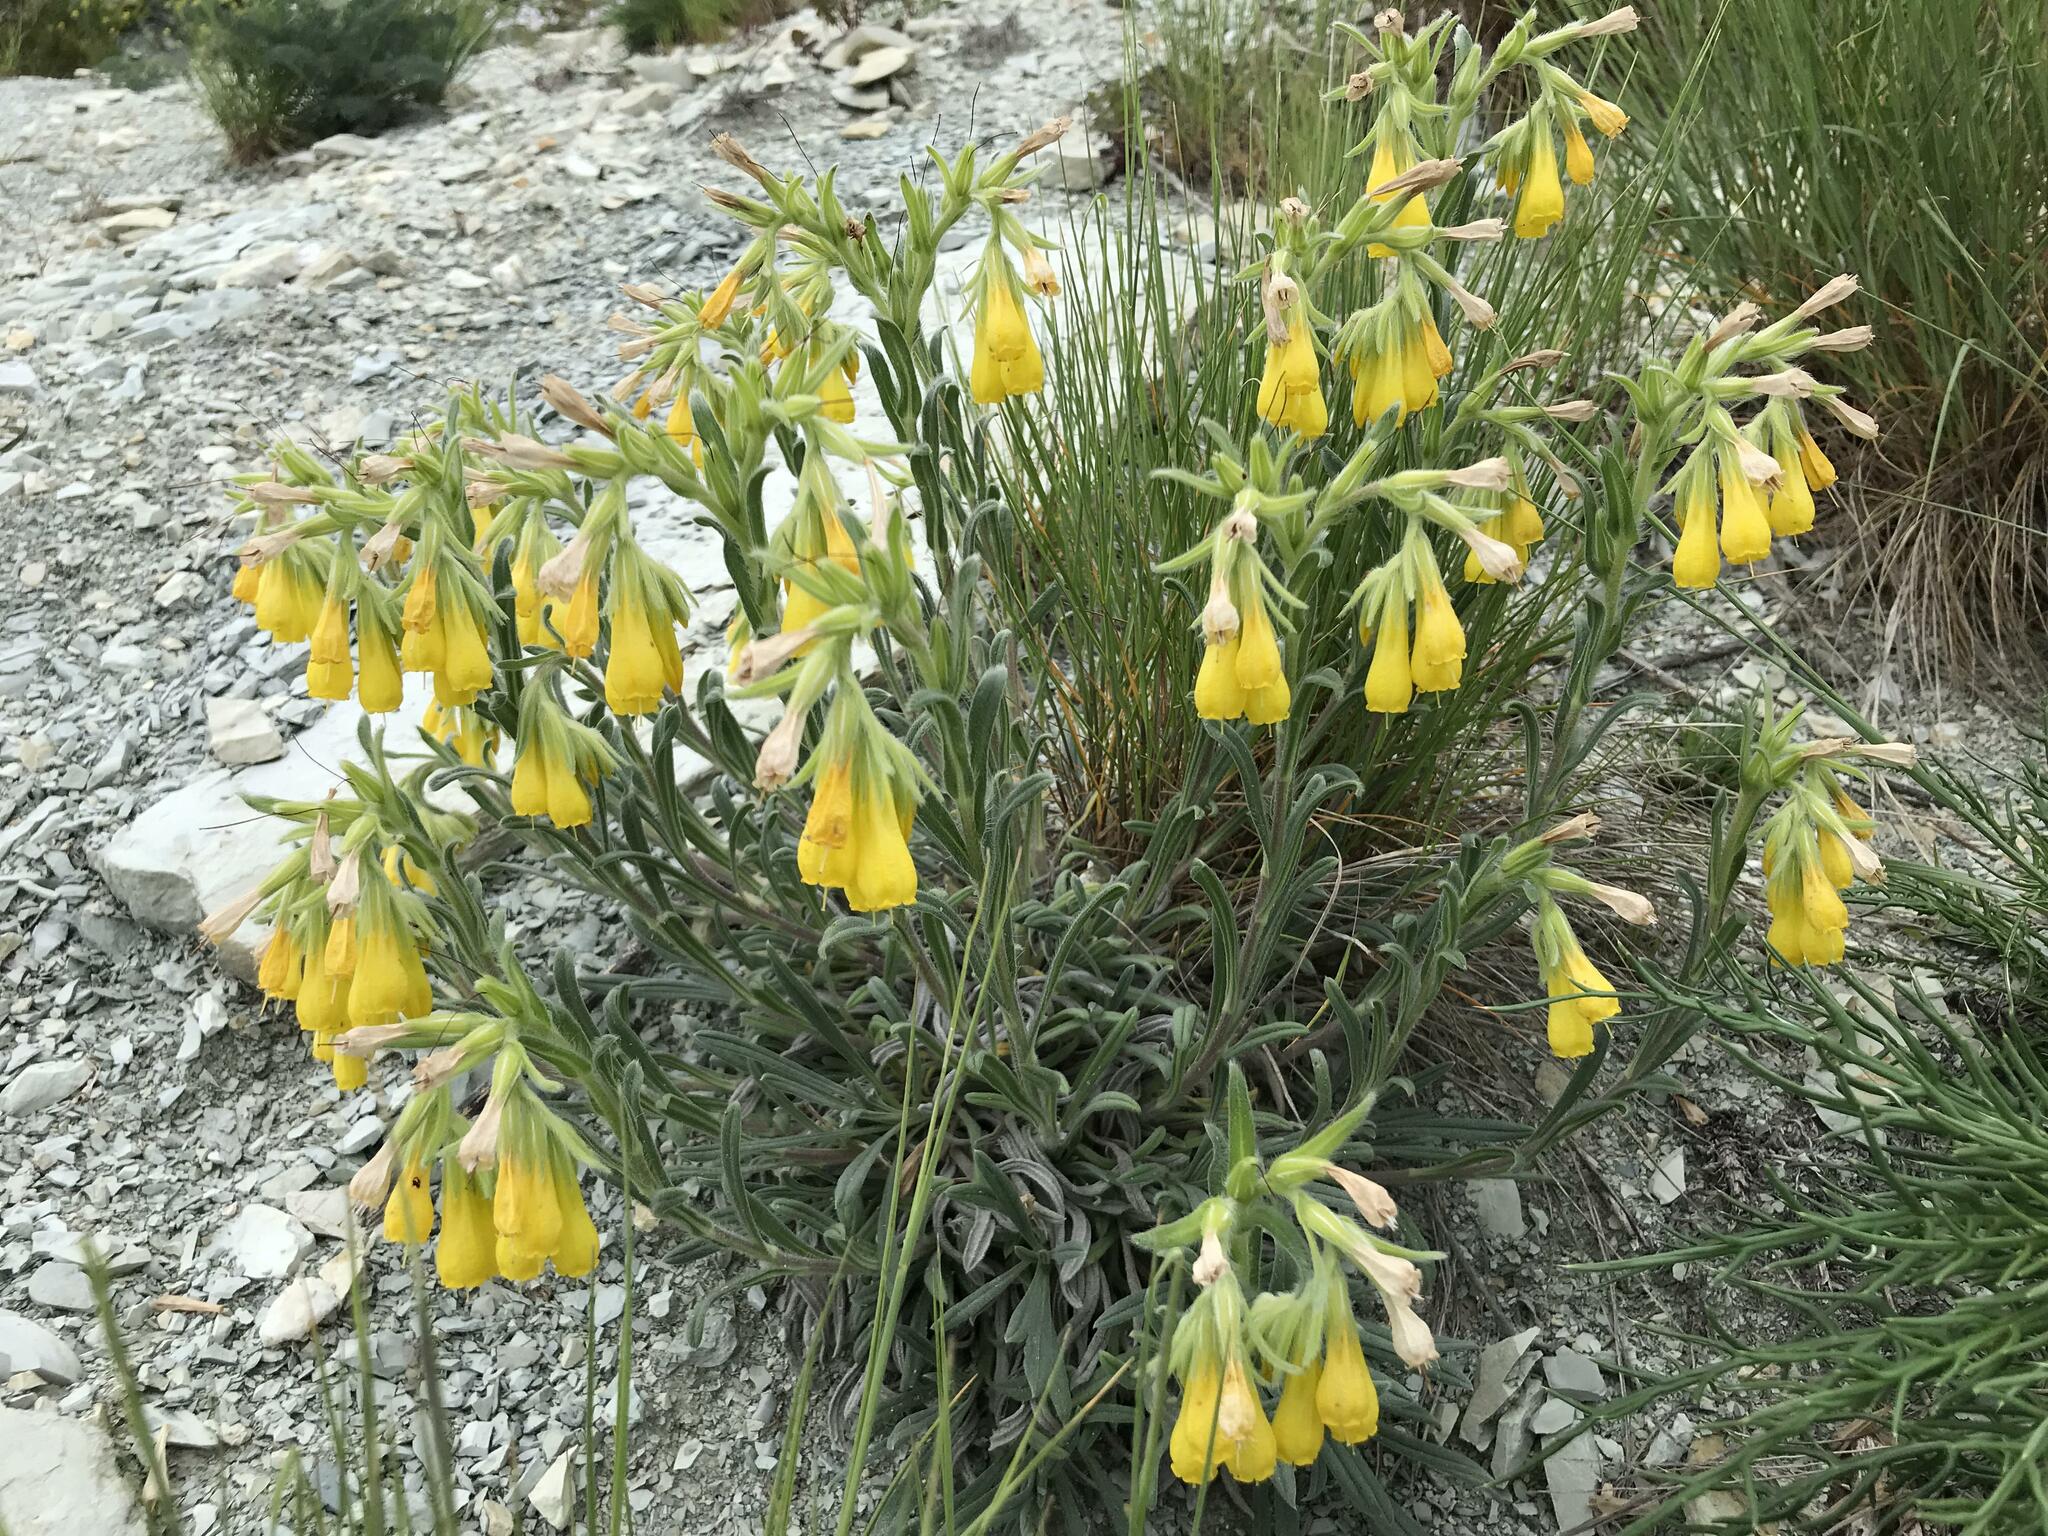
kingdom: Plantae
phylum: Tracheophyta
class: Magnoliopsida
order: Boraginales
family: Boraginaceae
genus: Onosma
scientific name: Onosma taurica
